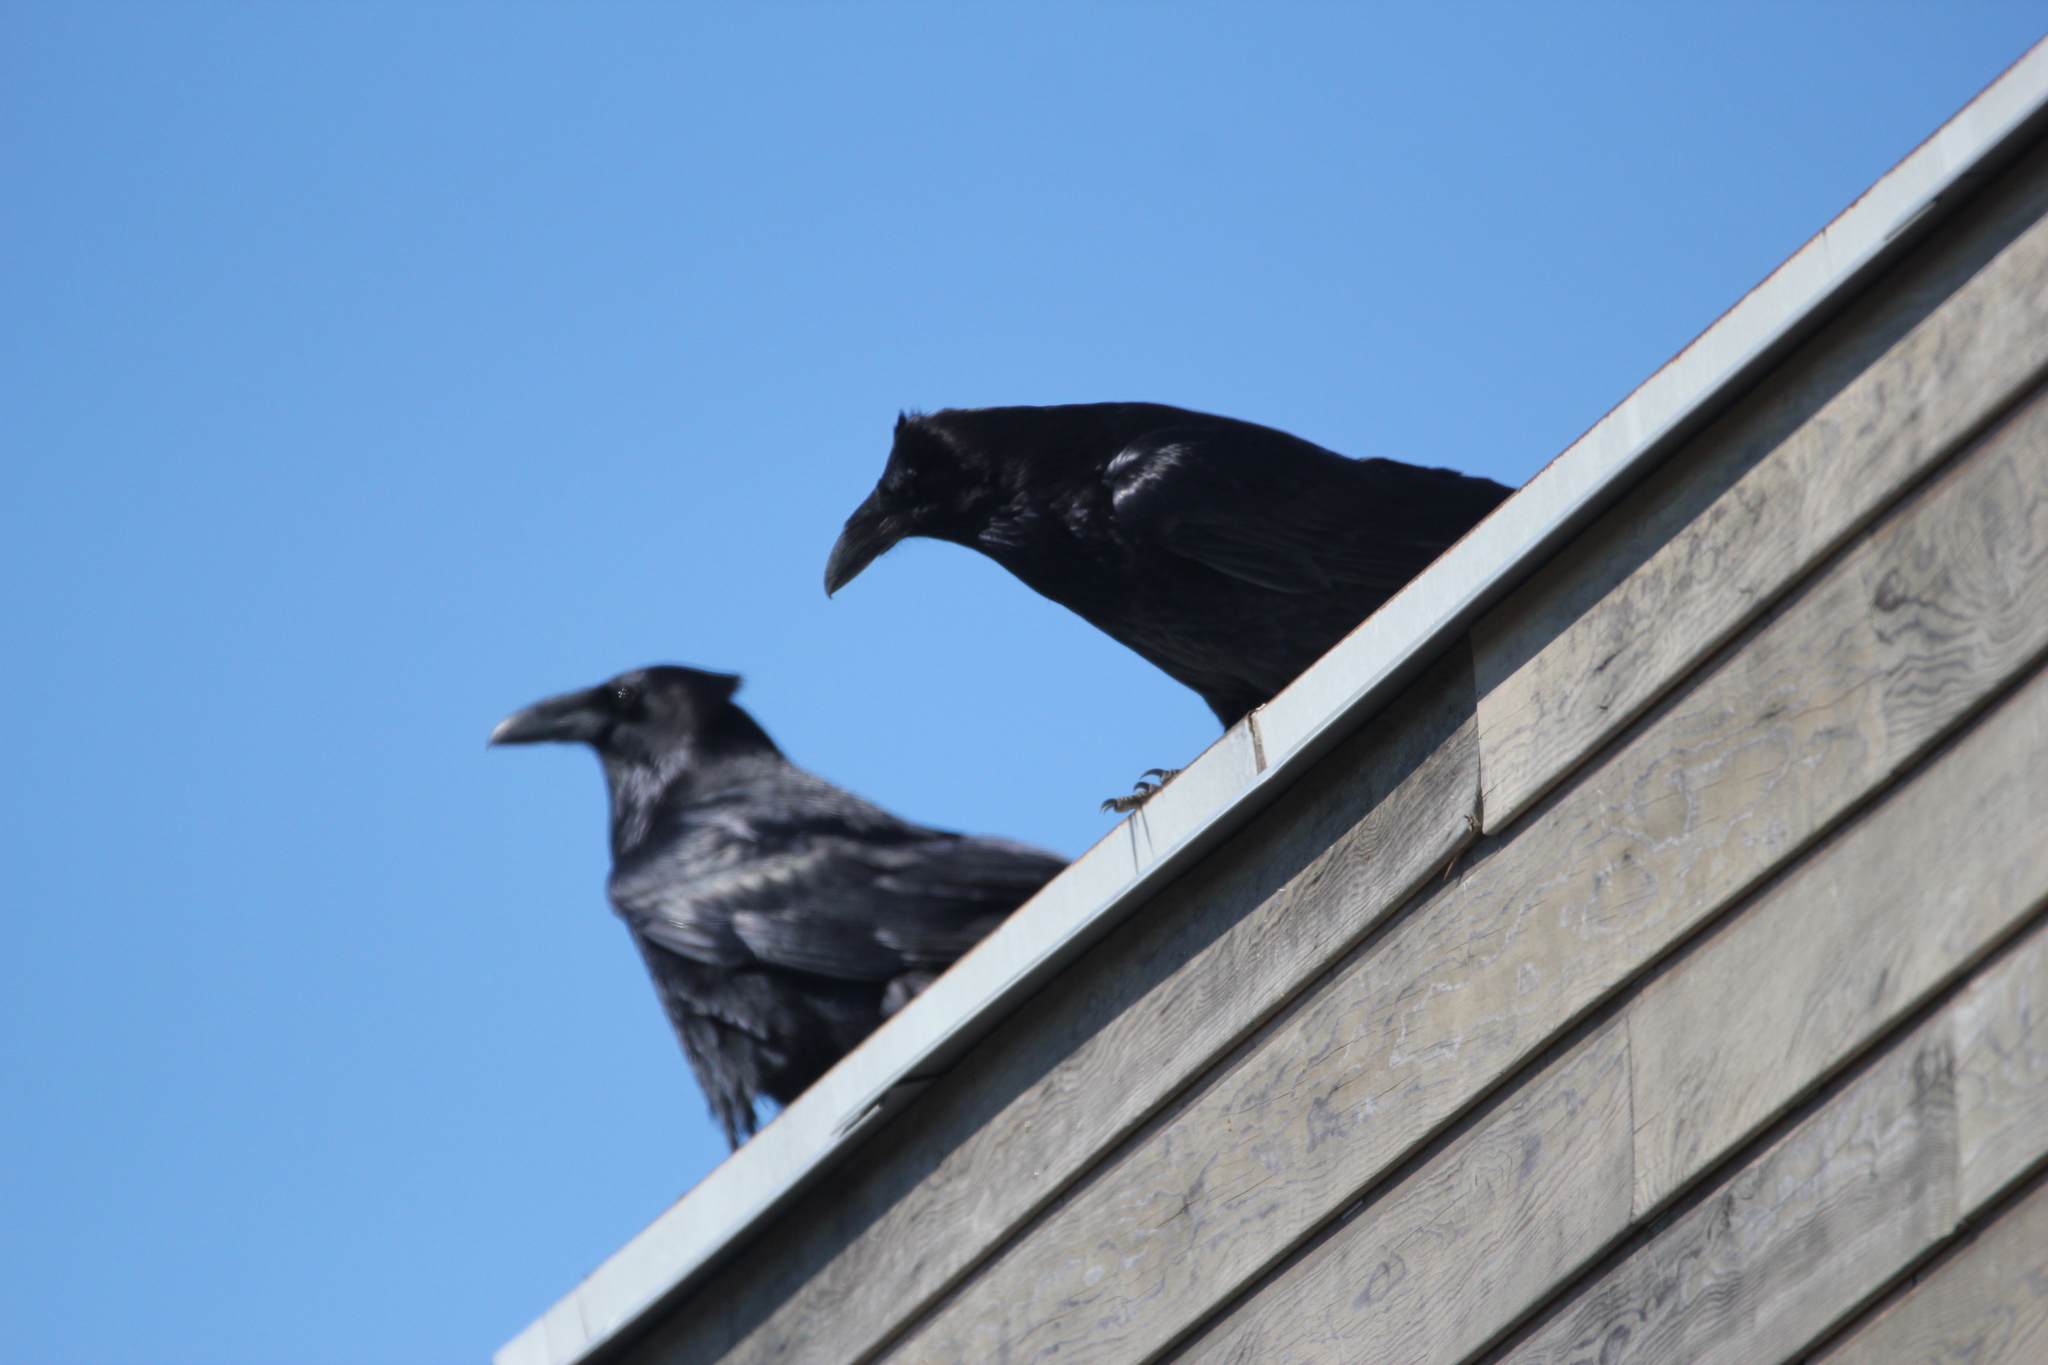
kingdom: Animalia
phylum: Chordata
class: Aves
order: Passeriformes
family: Corvidae
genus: Corvus
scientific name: Corvus corax
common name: Common raven
